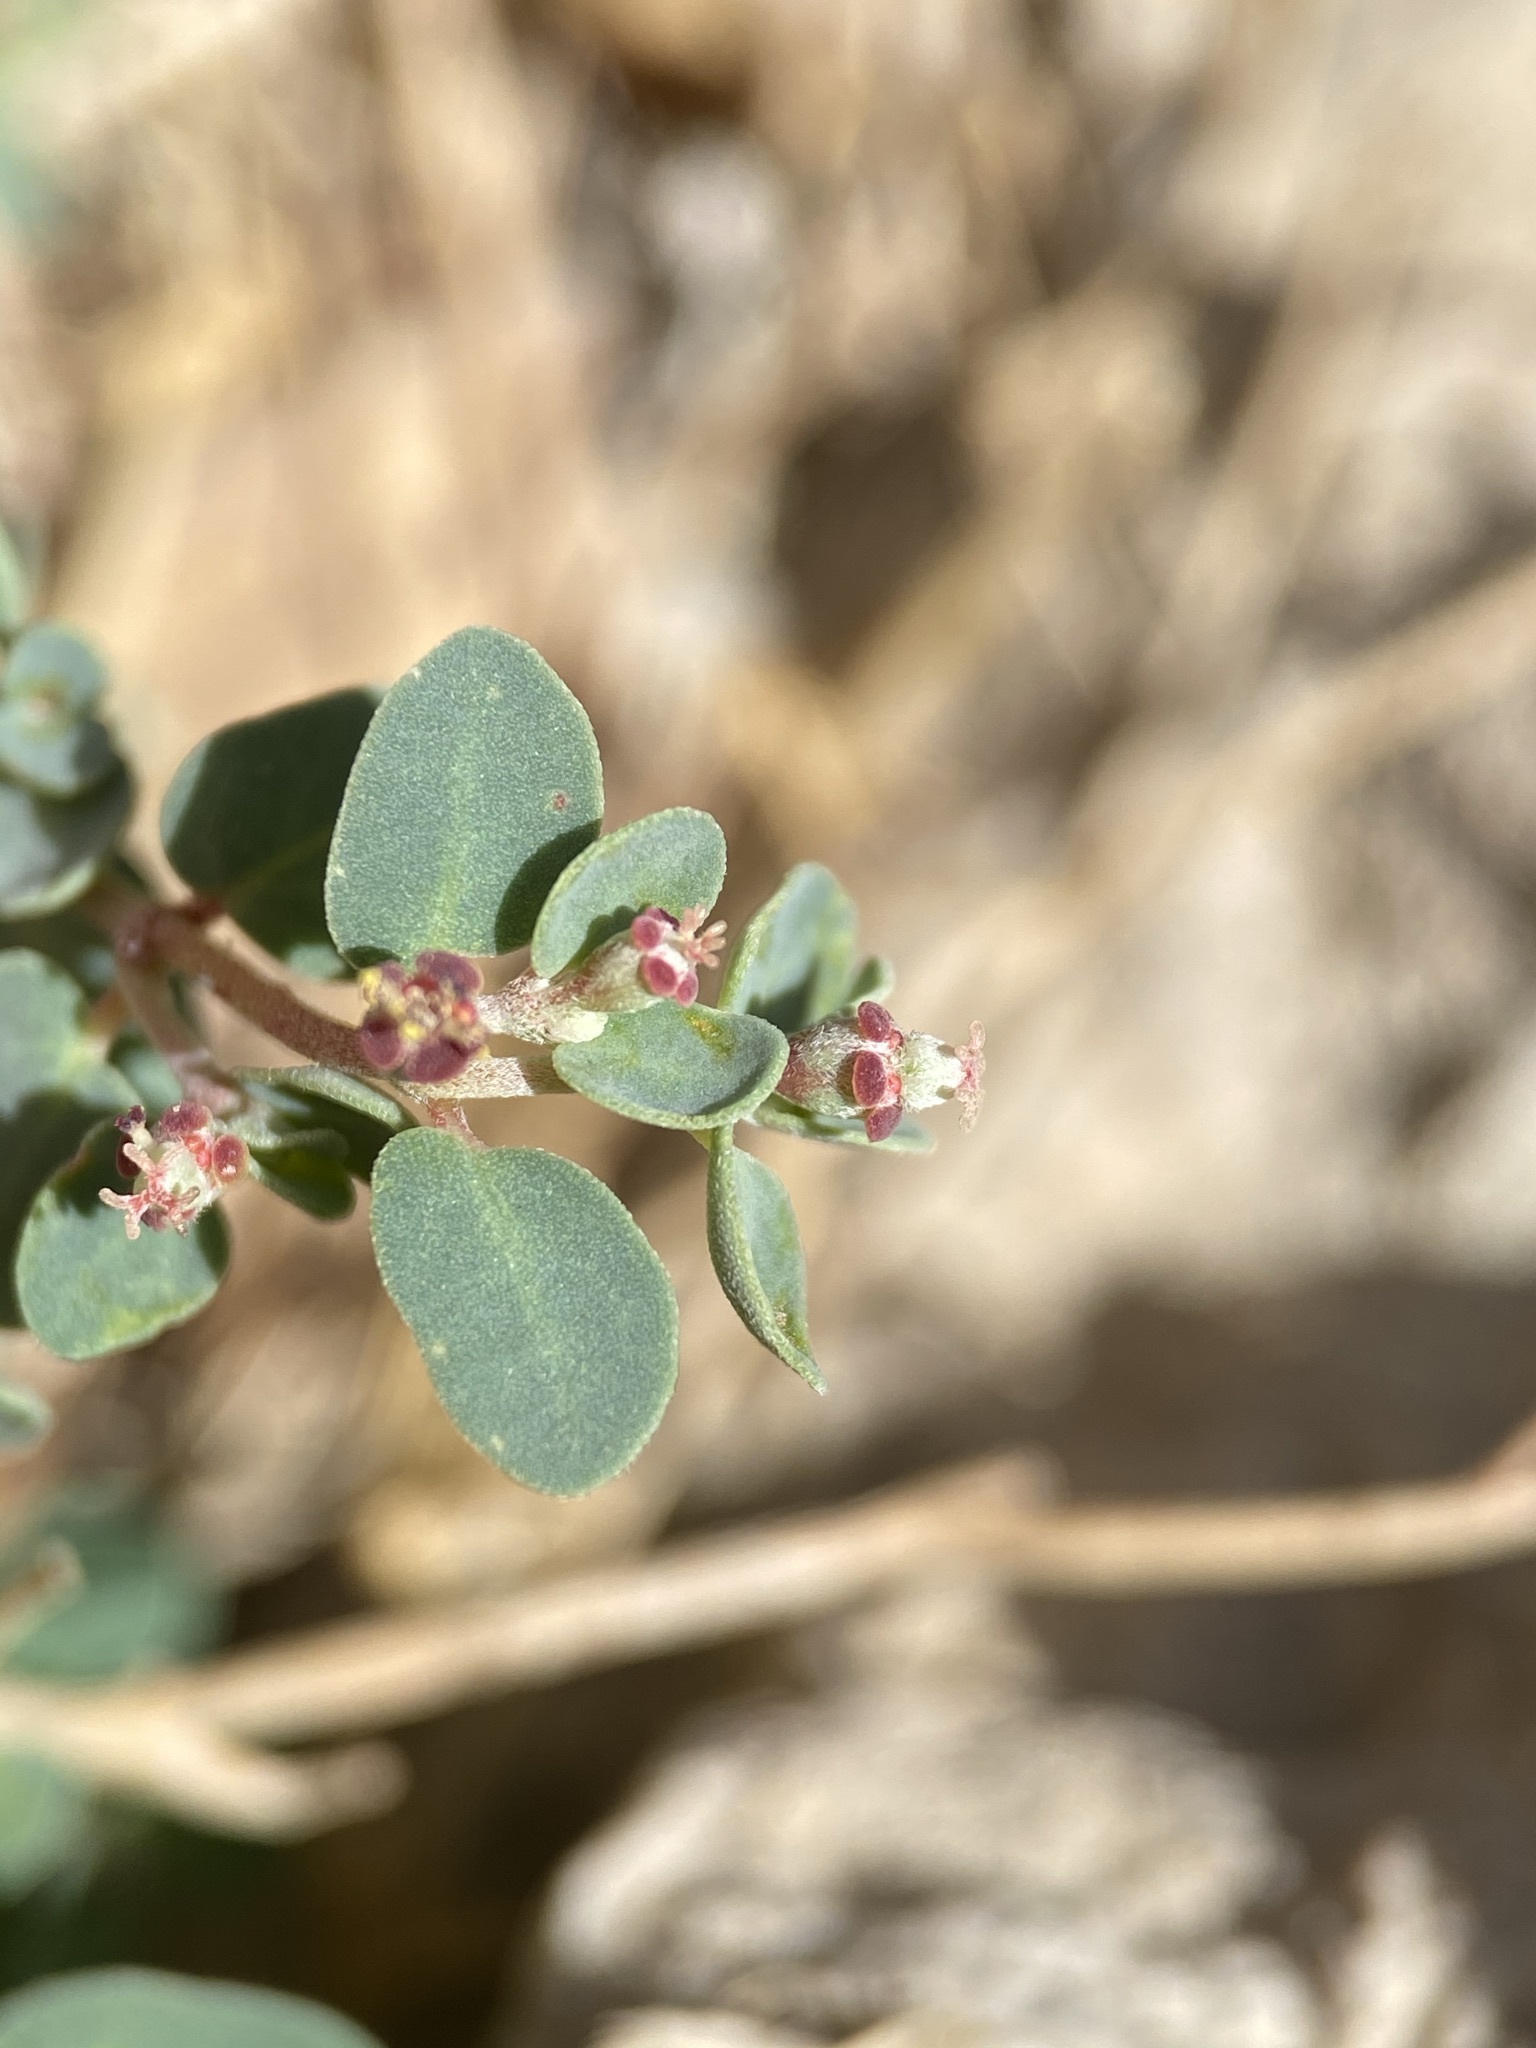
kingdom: Plantae
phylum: Tracheophyta
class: Magnoliopsida
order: Malpighiales
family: Euphorbiaceae
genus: Euphorbia
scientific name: Euphorbia cinerascens
